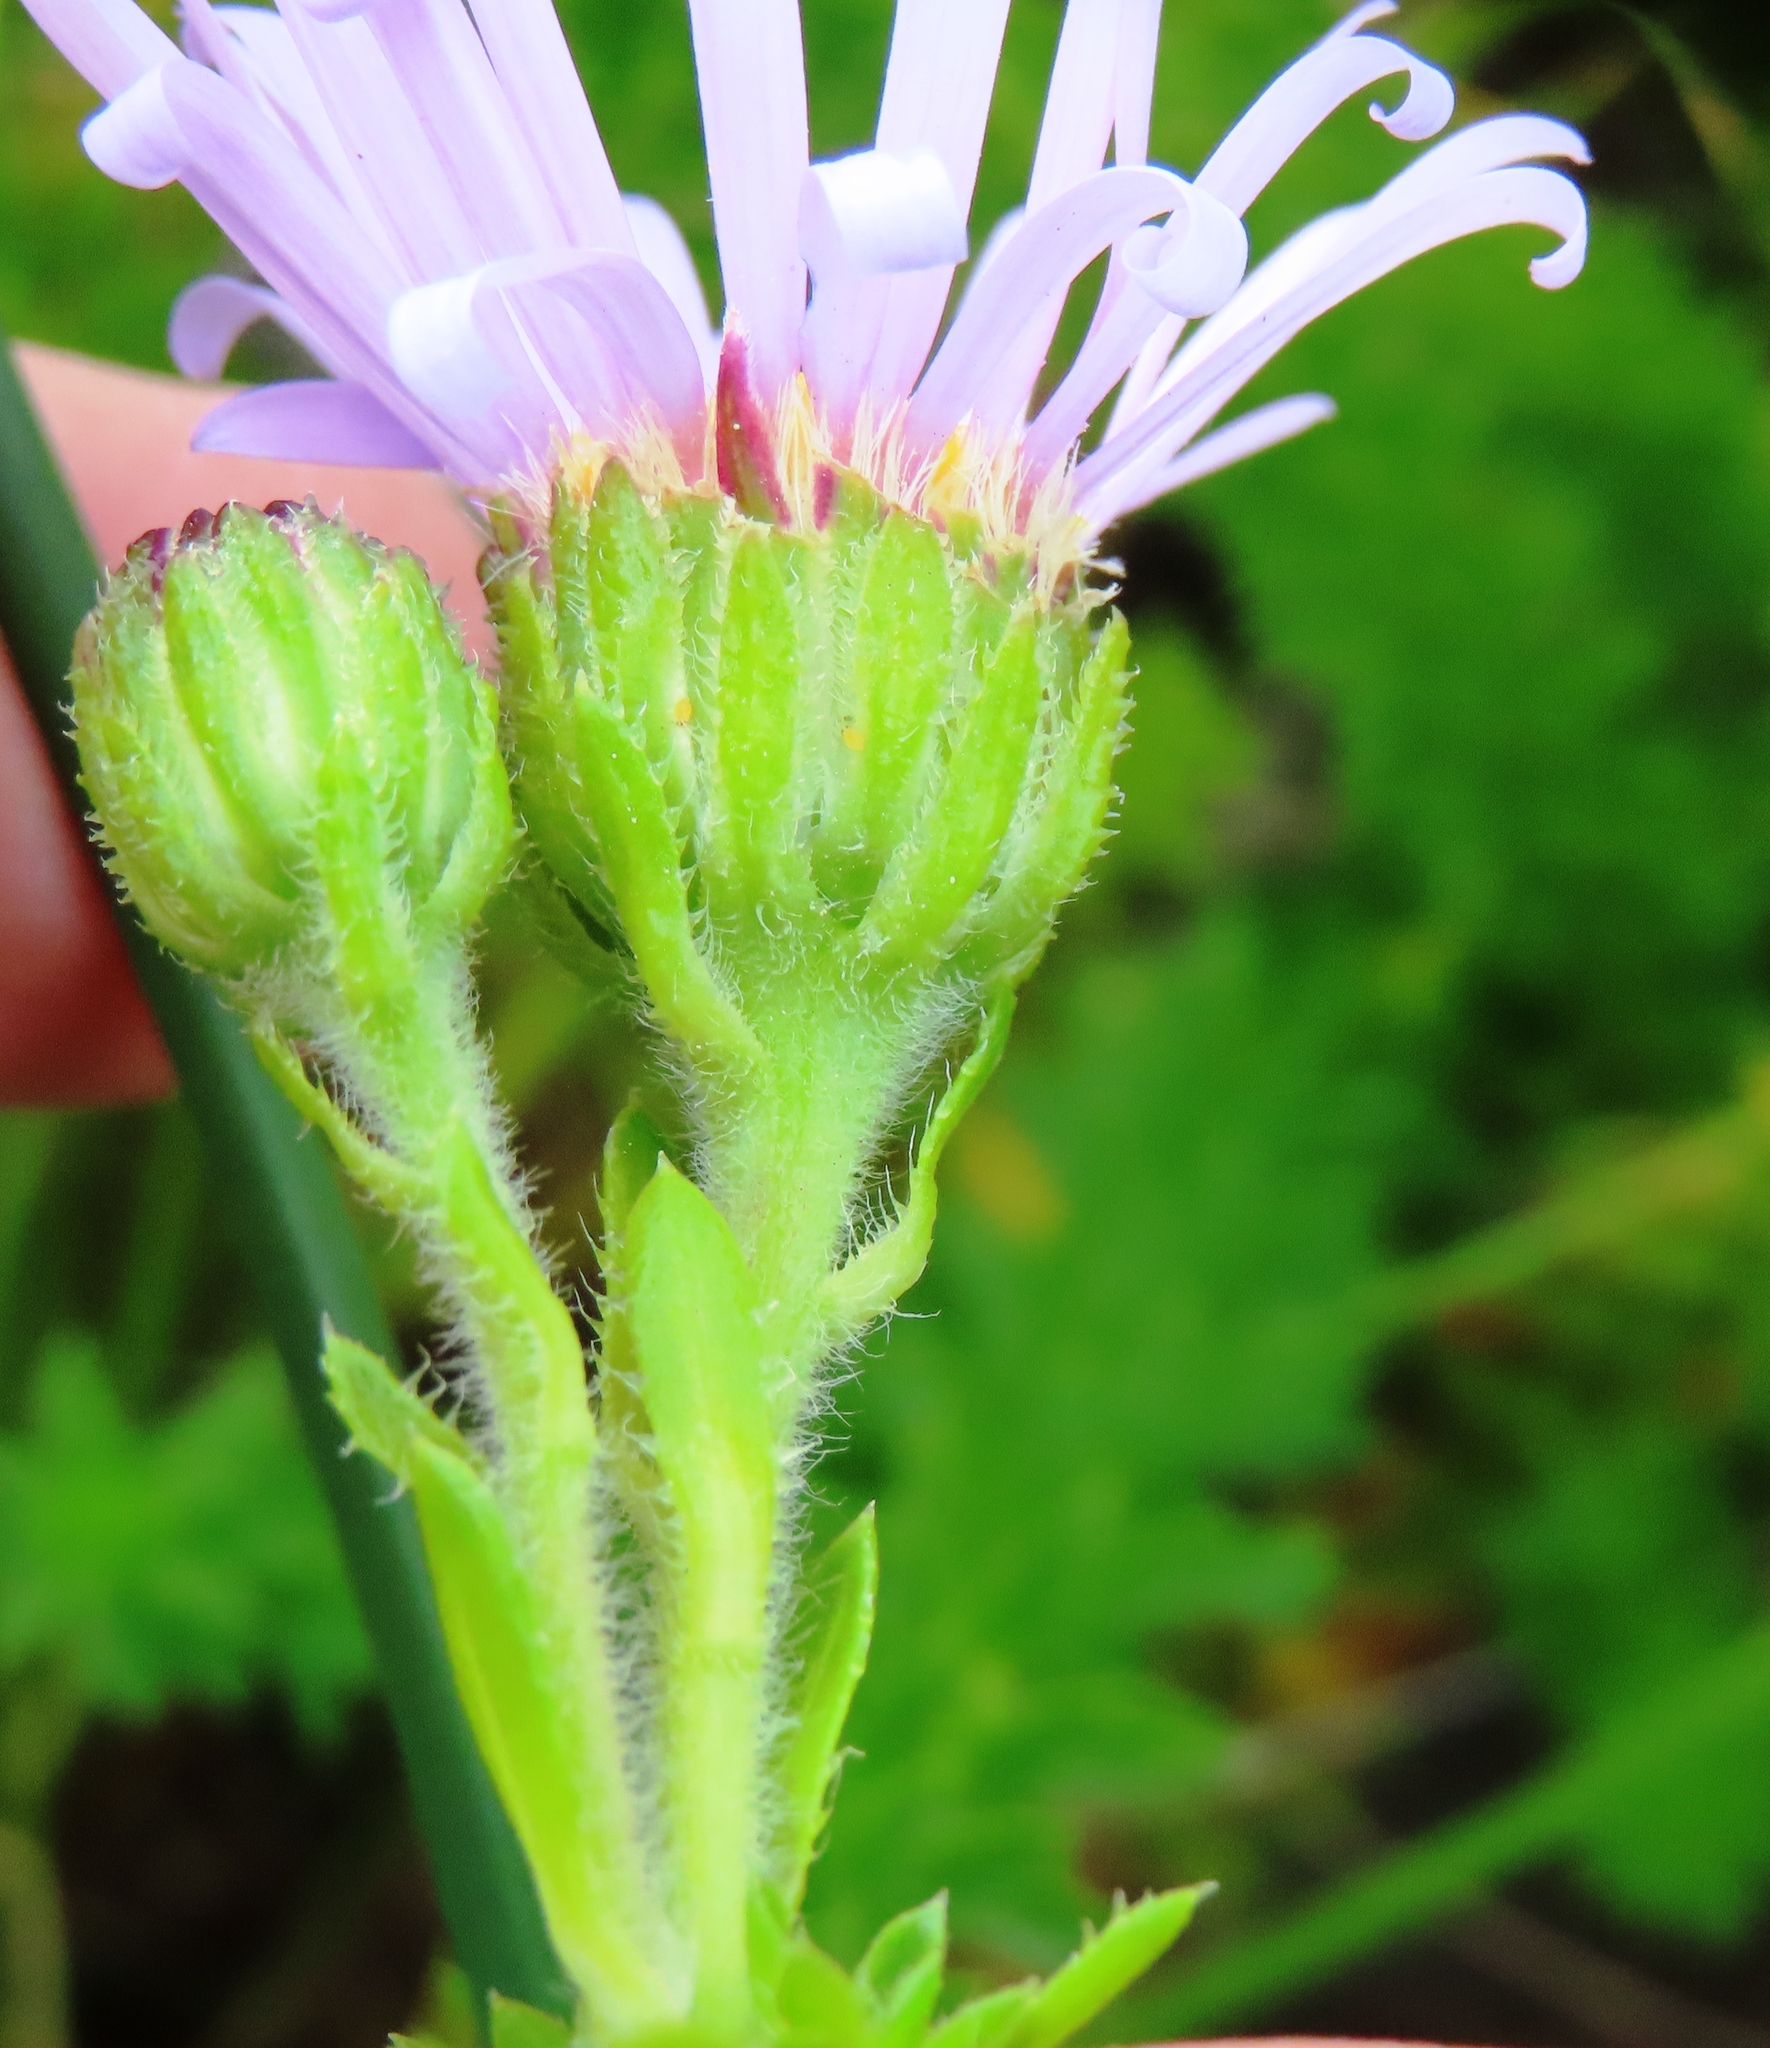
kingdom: Plantae
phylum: Tracheophyta
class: Magnoliopsida
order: Asterales
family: Asteraceae
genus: Felicia
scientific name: Felicia echinata
